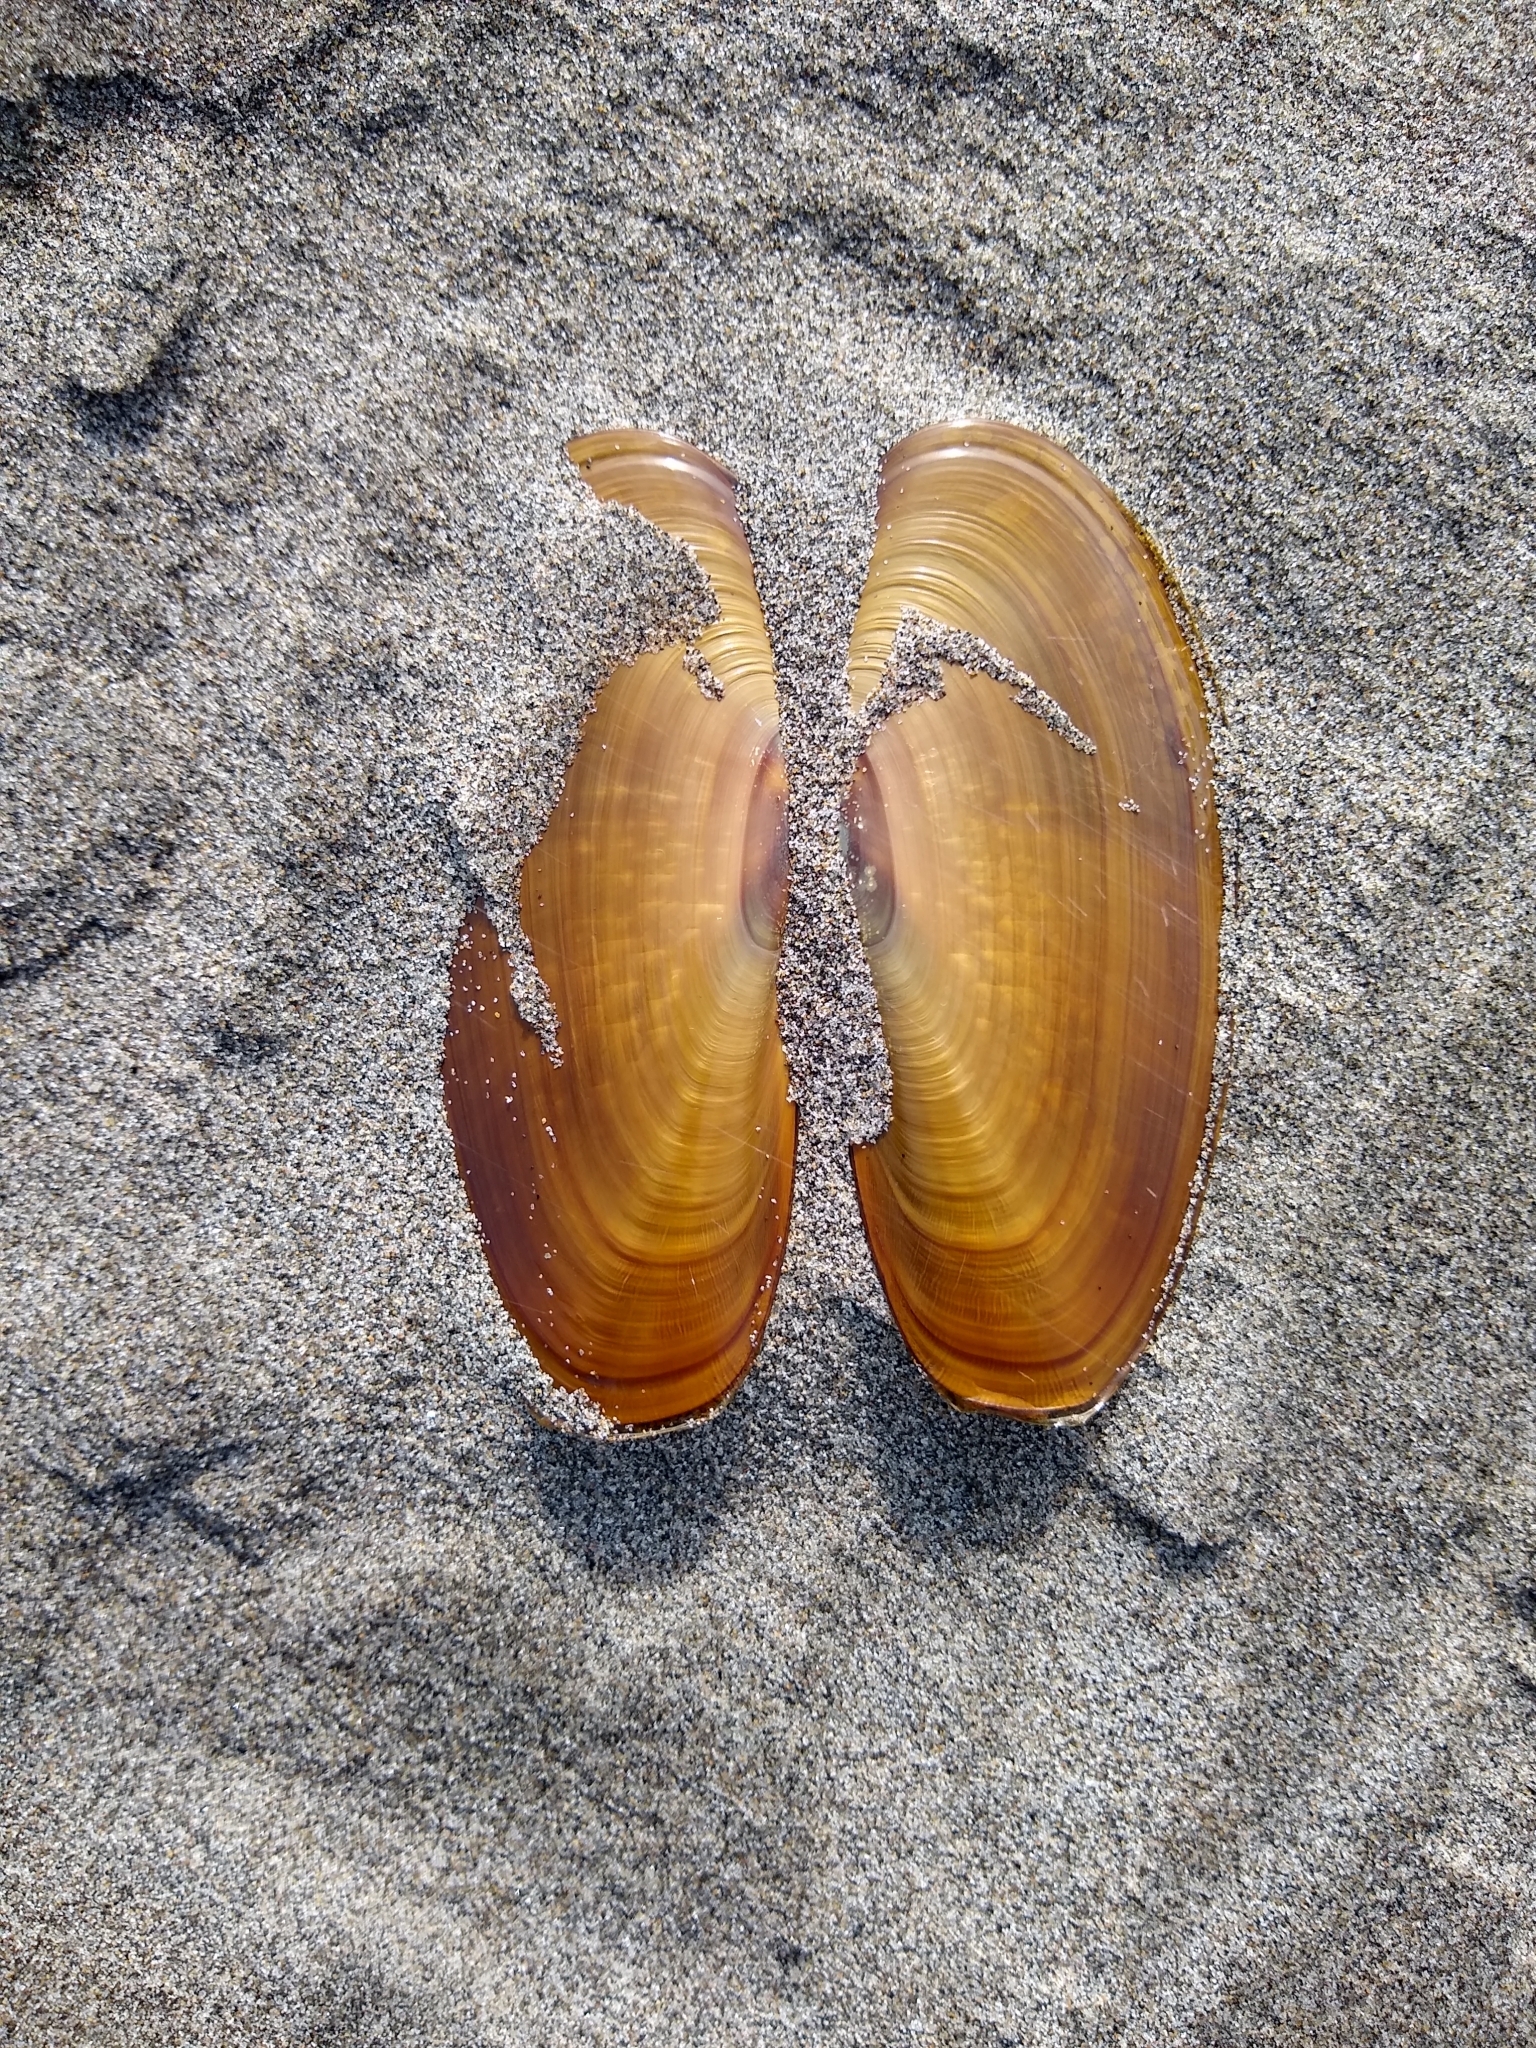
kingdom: Animalia
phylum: Mollusca
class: Bivalvia
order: Adapedonta
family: Pharidae
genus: Siliqua
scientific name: Siliqua patula
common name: Pacific razor clam
